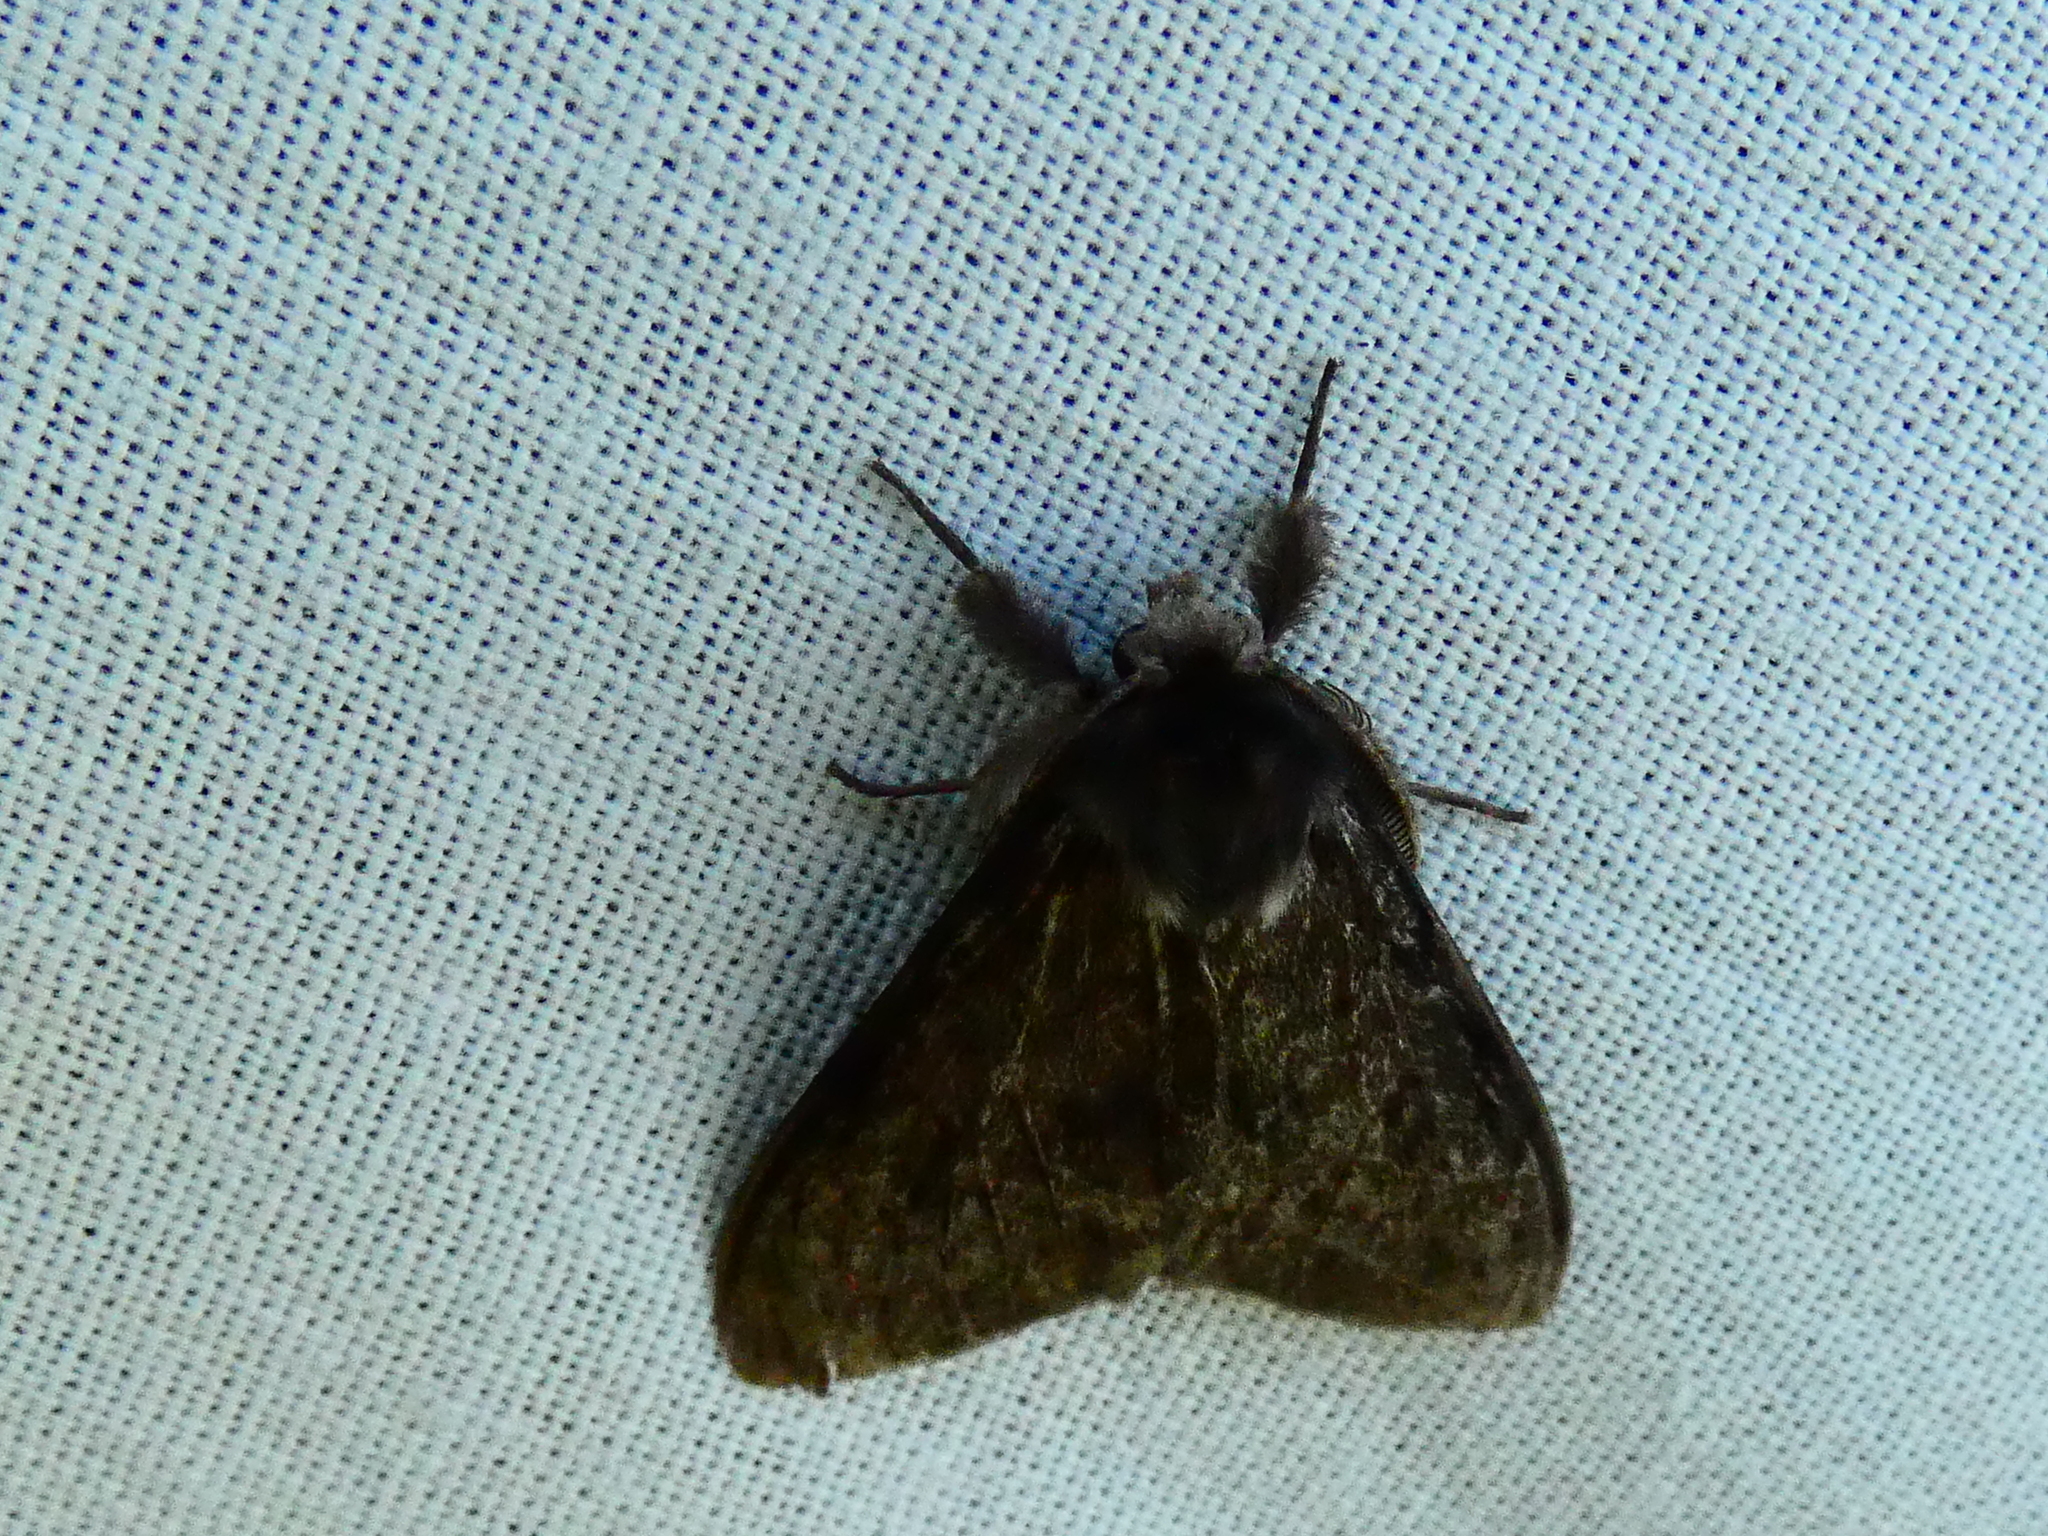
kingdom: Animalia
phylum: Arthropoda
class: Insecta
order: Lepidoptera
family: Erebidae
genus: Lymantria
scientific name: Lymantria monacha
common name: Black arches
